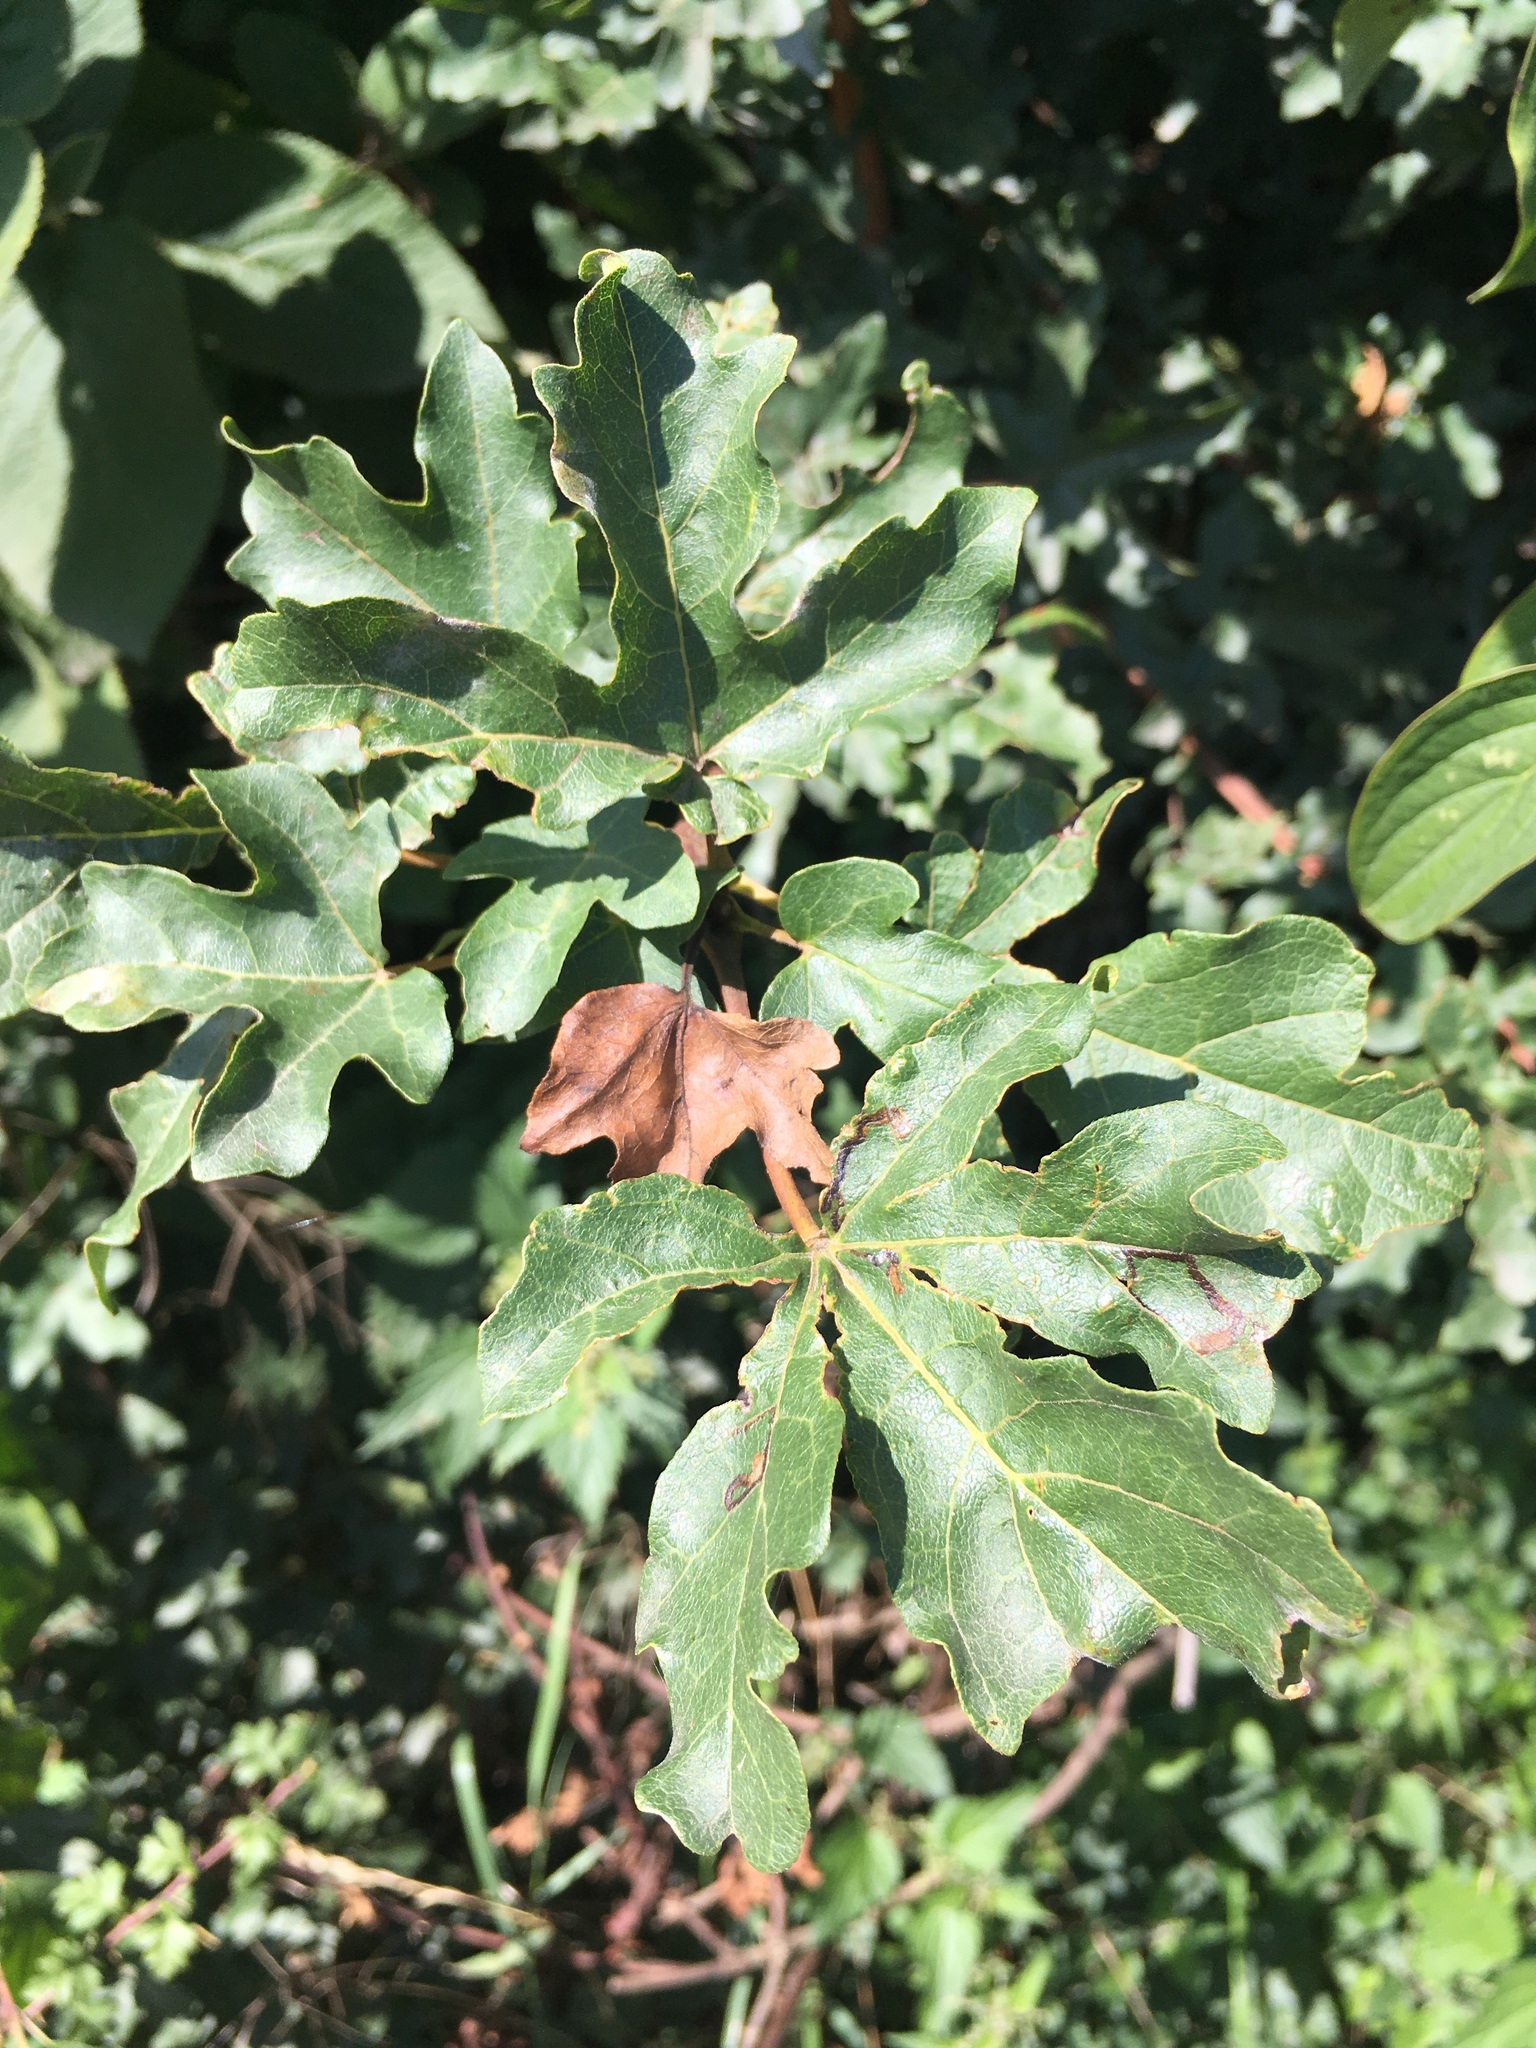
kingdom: Plantae
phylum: Tracheophyta
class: Magnoliopsida
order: Sapindales
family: Sapindaceae
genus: Acer
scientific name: Acer campestre
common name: Field maple
